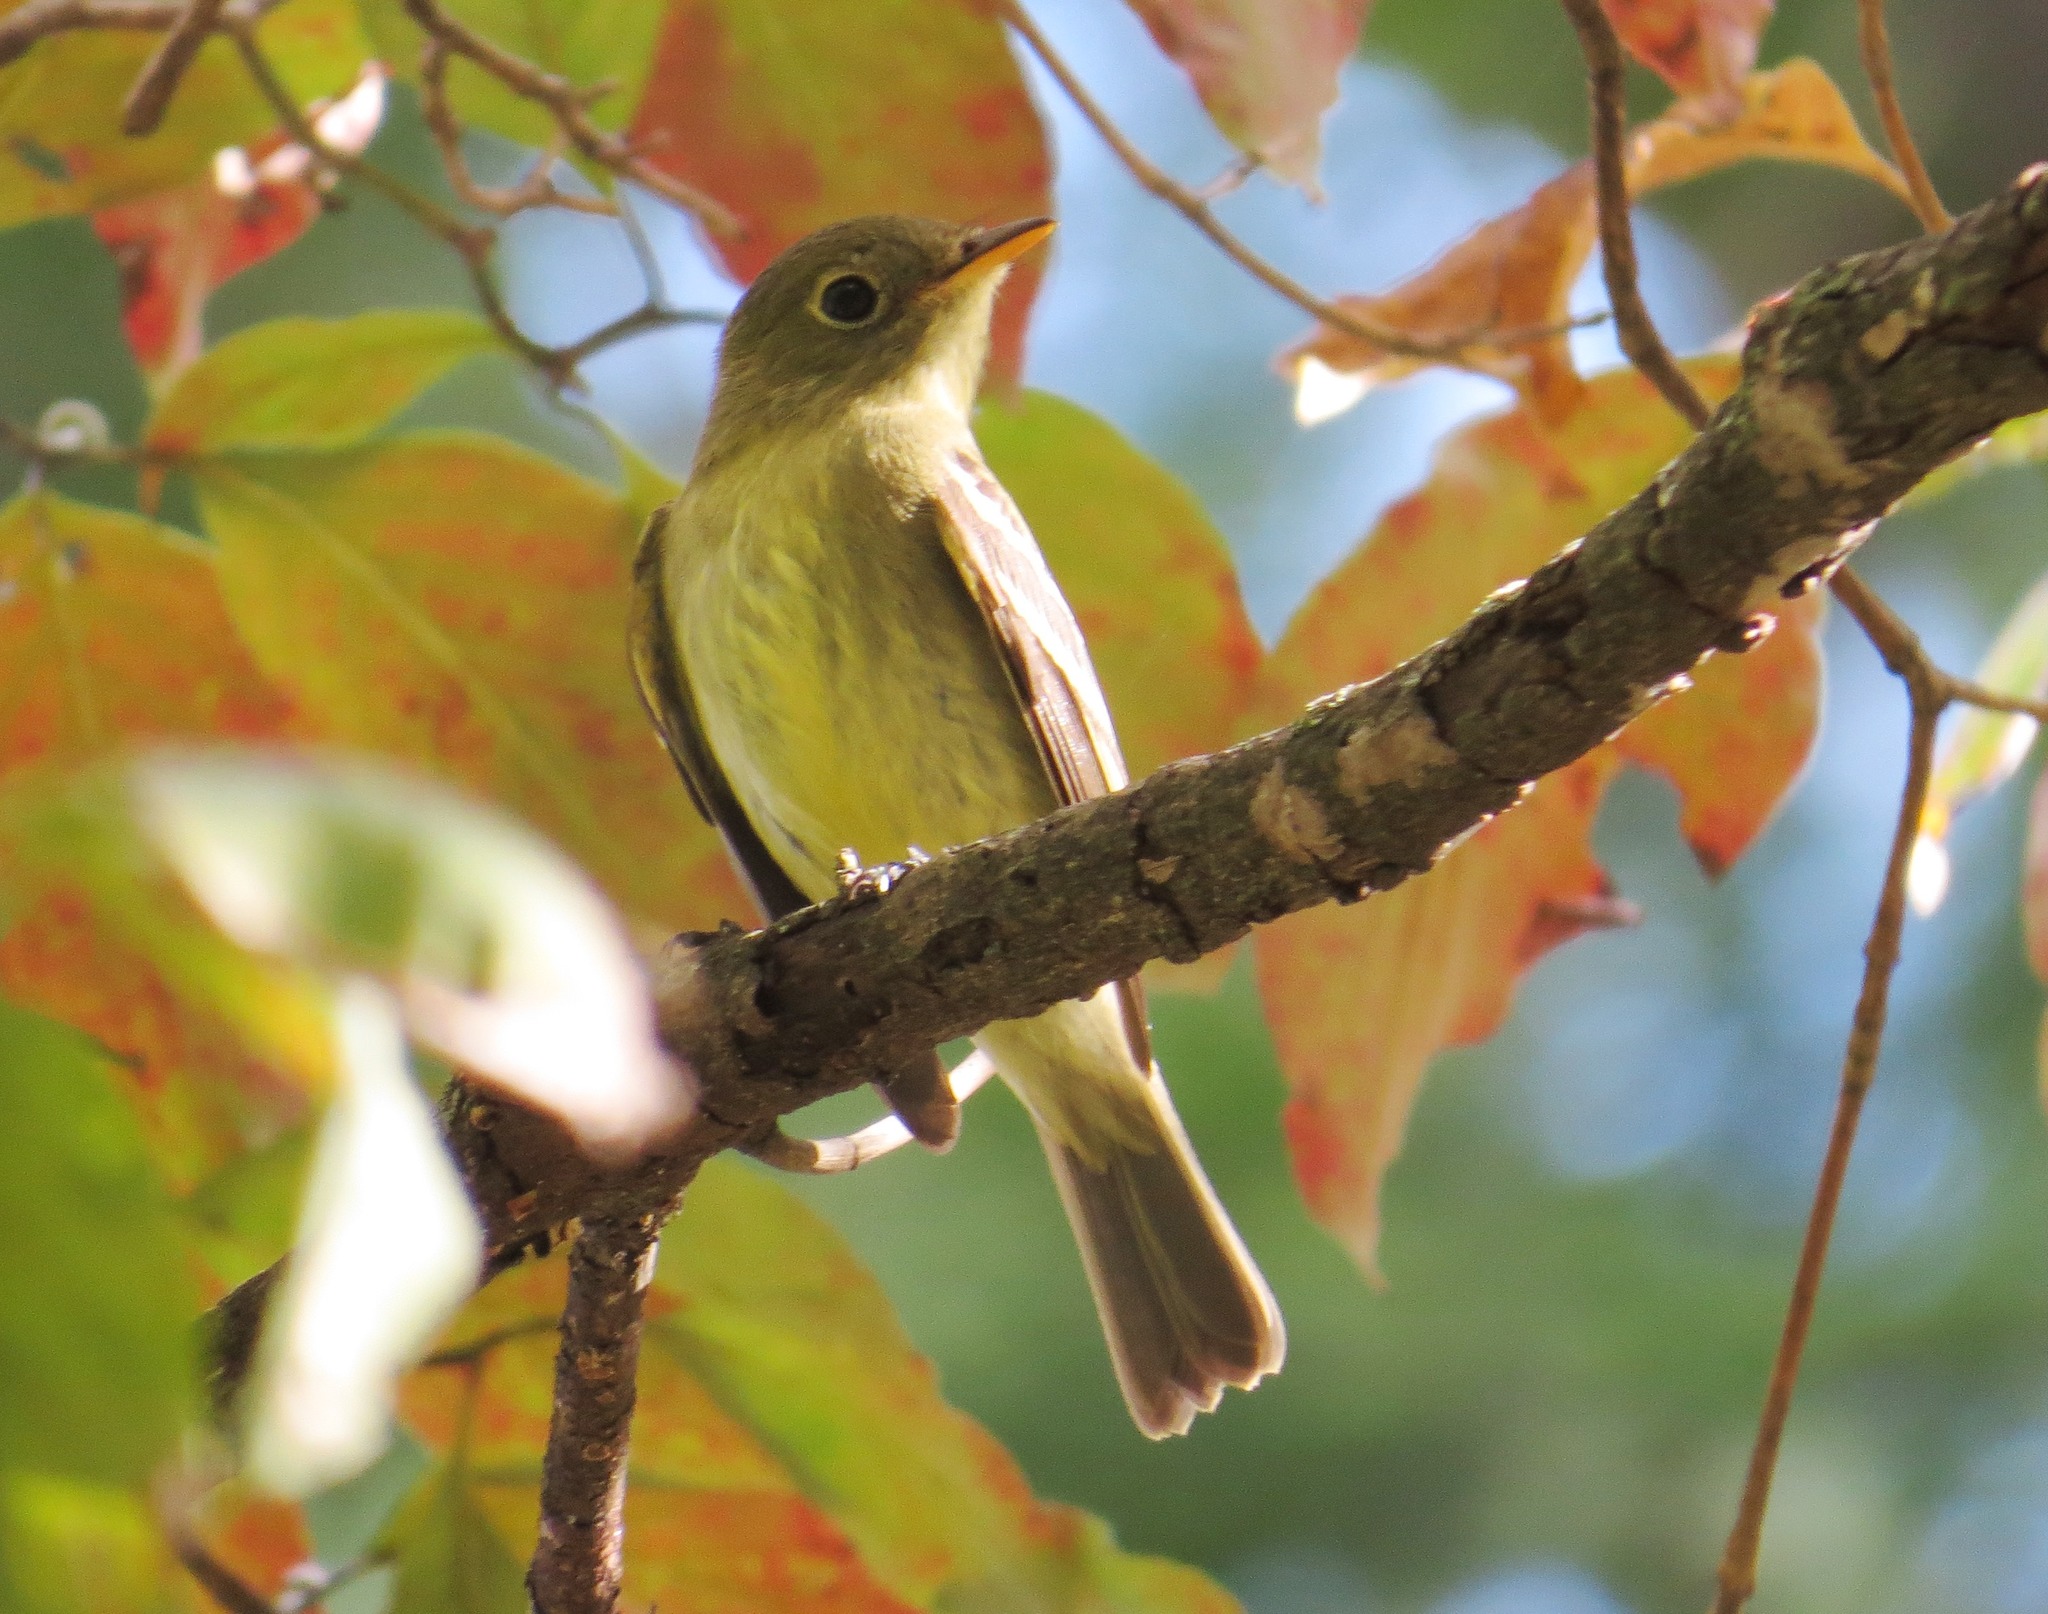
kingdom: Animalia
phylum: Chordata
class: Aves
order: Passeriformes
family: Tyrannidae
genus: Empidonax
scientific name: Empidonax flaviventris
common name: Yellow-bellied flycatcher
